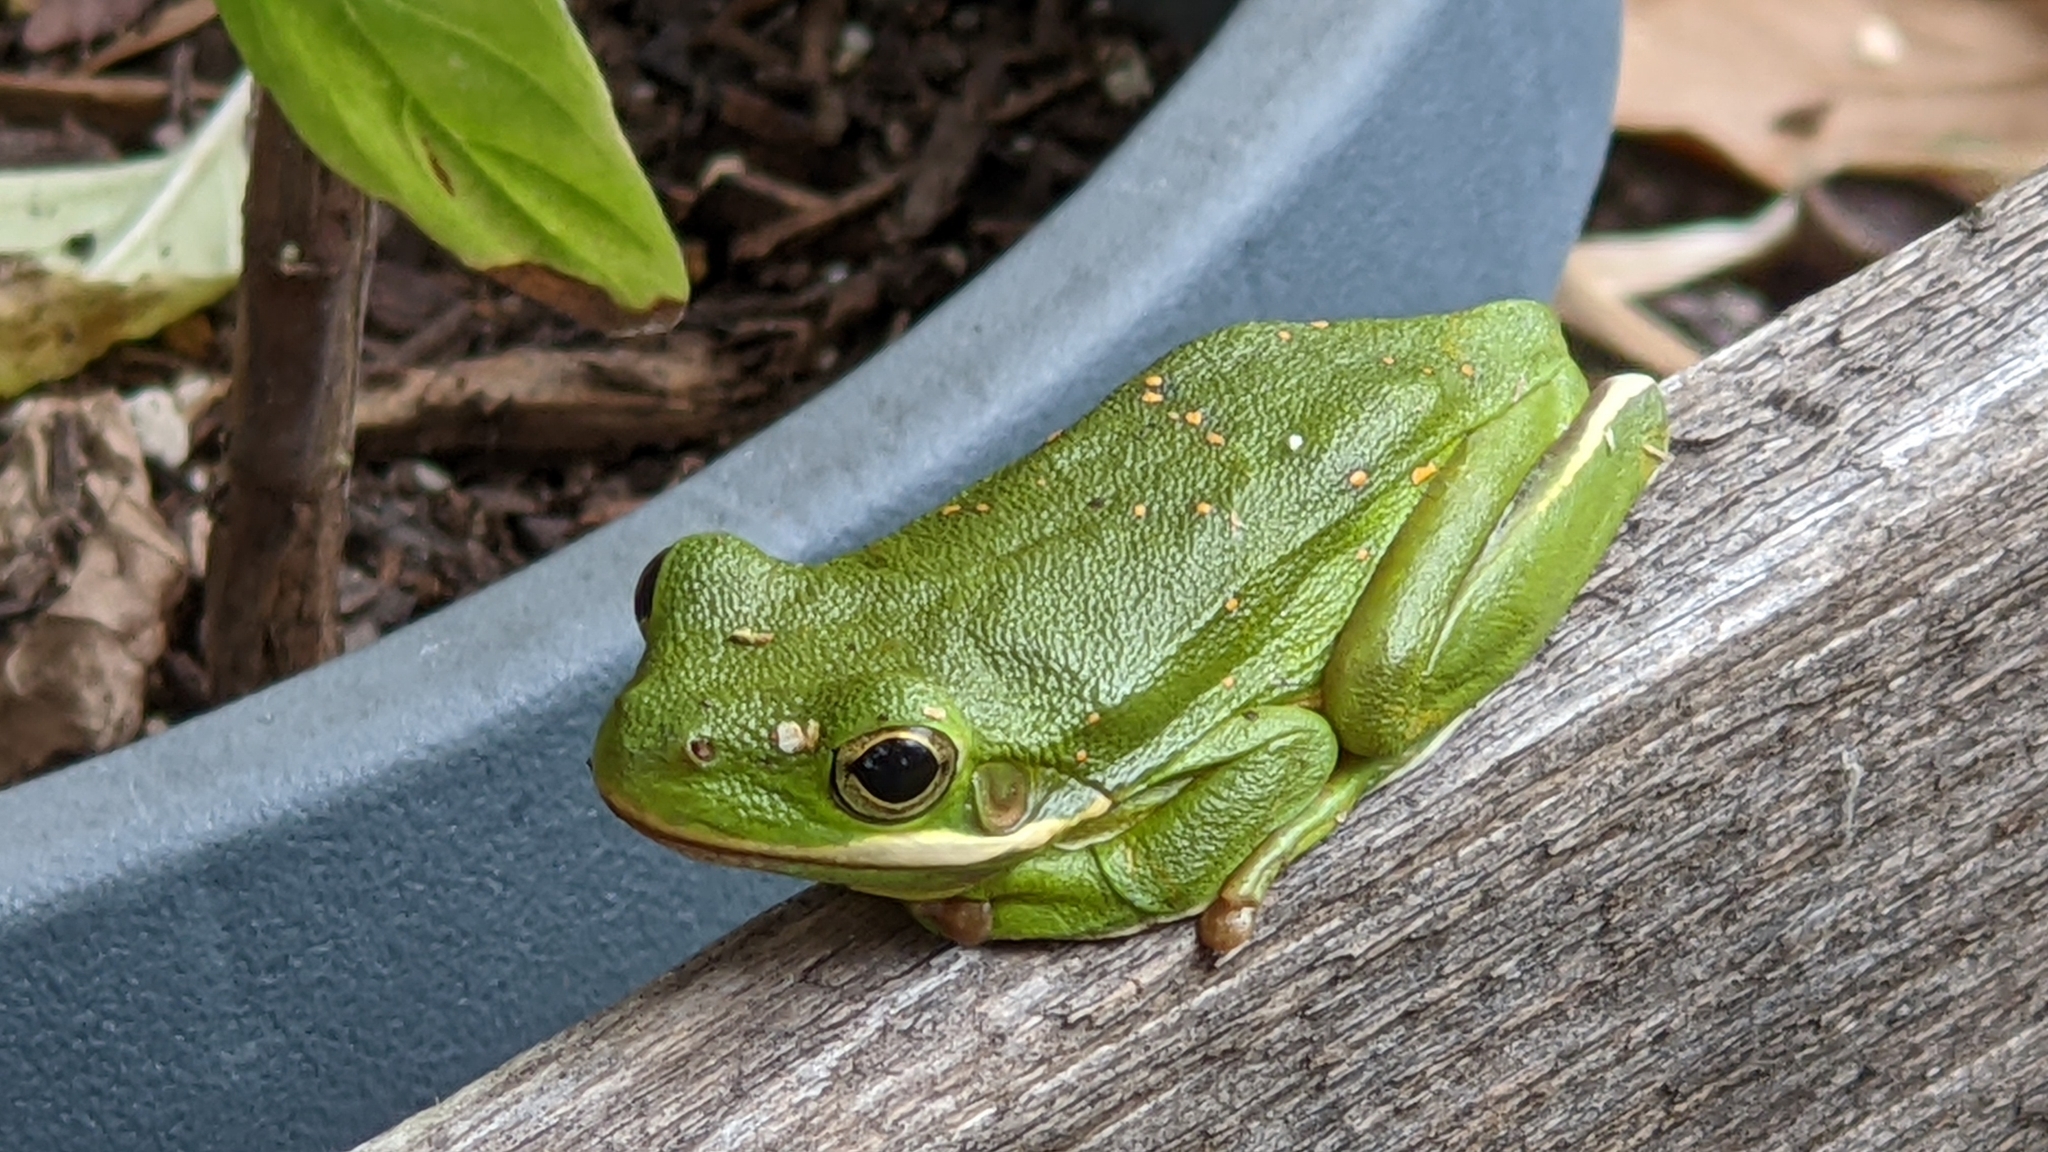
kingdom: Animalia
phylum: Chordata
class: Amphibia
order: Anura
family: Hylidae
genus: Dryophytes
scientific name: Dryophytes cinereus
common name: Green treefrog
